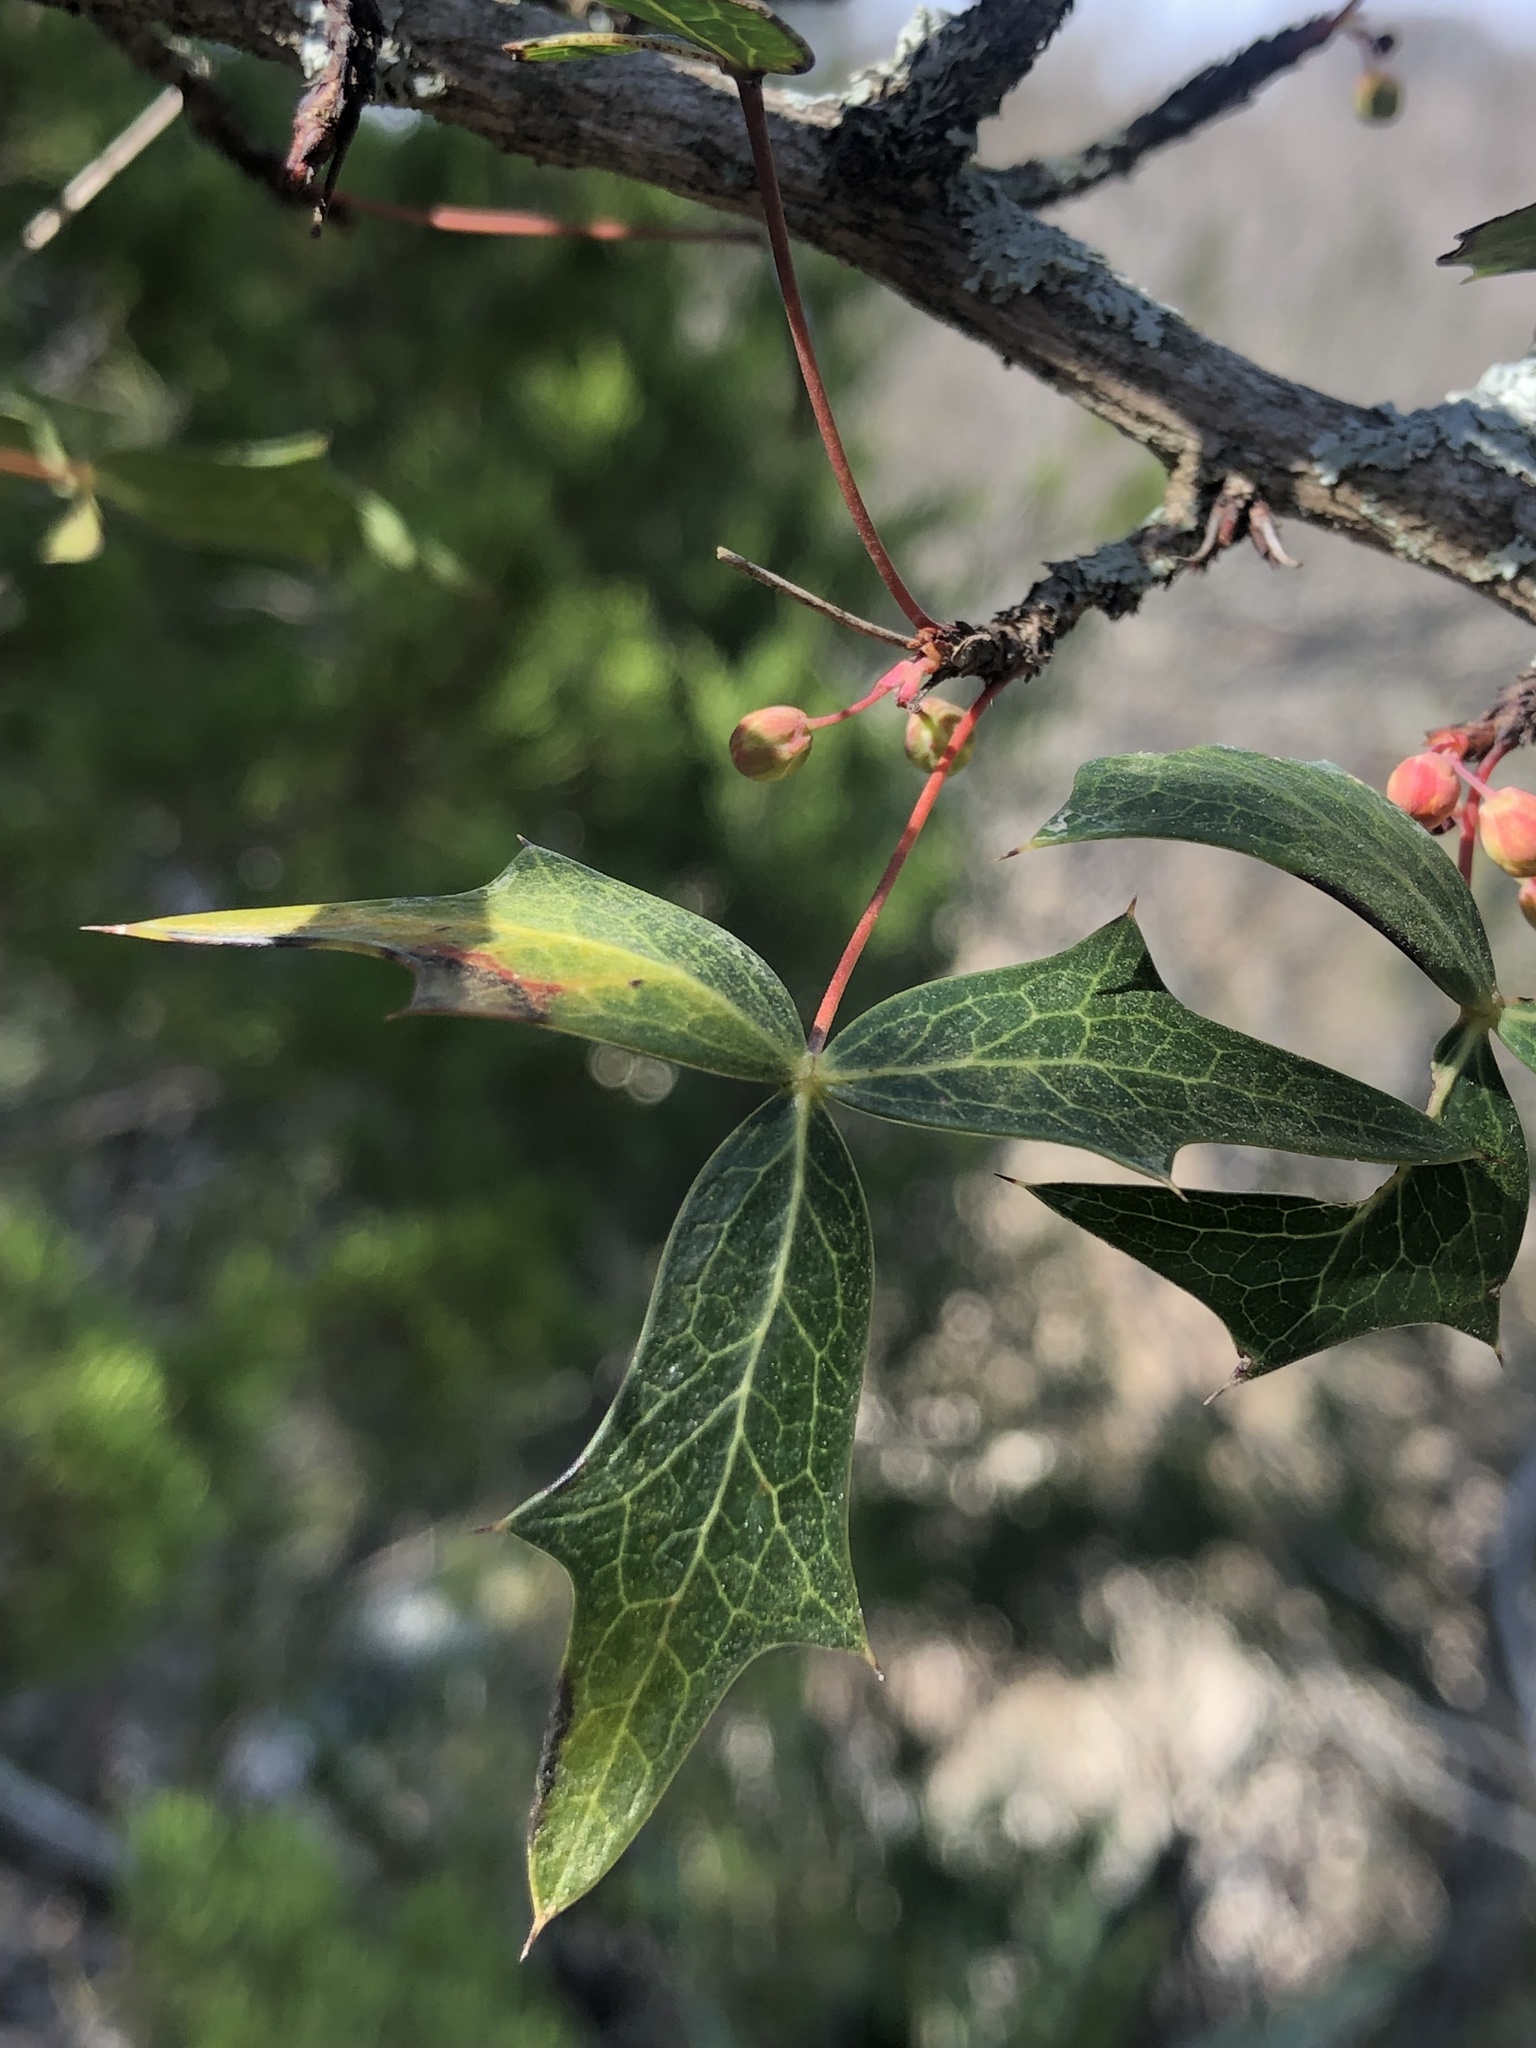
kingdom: Plantae
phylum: Tracheophyta
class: Magnoliopsida
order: Ranunculales
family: Berberidaceae
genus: Alloberberis
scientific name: Alloberberis trifoliolata
